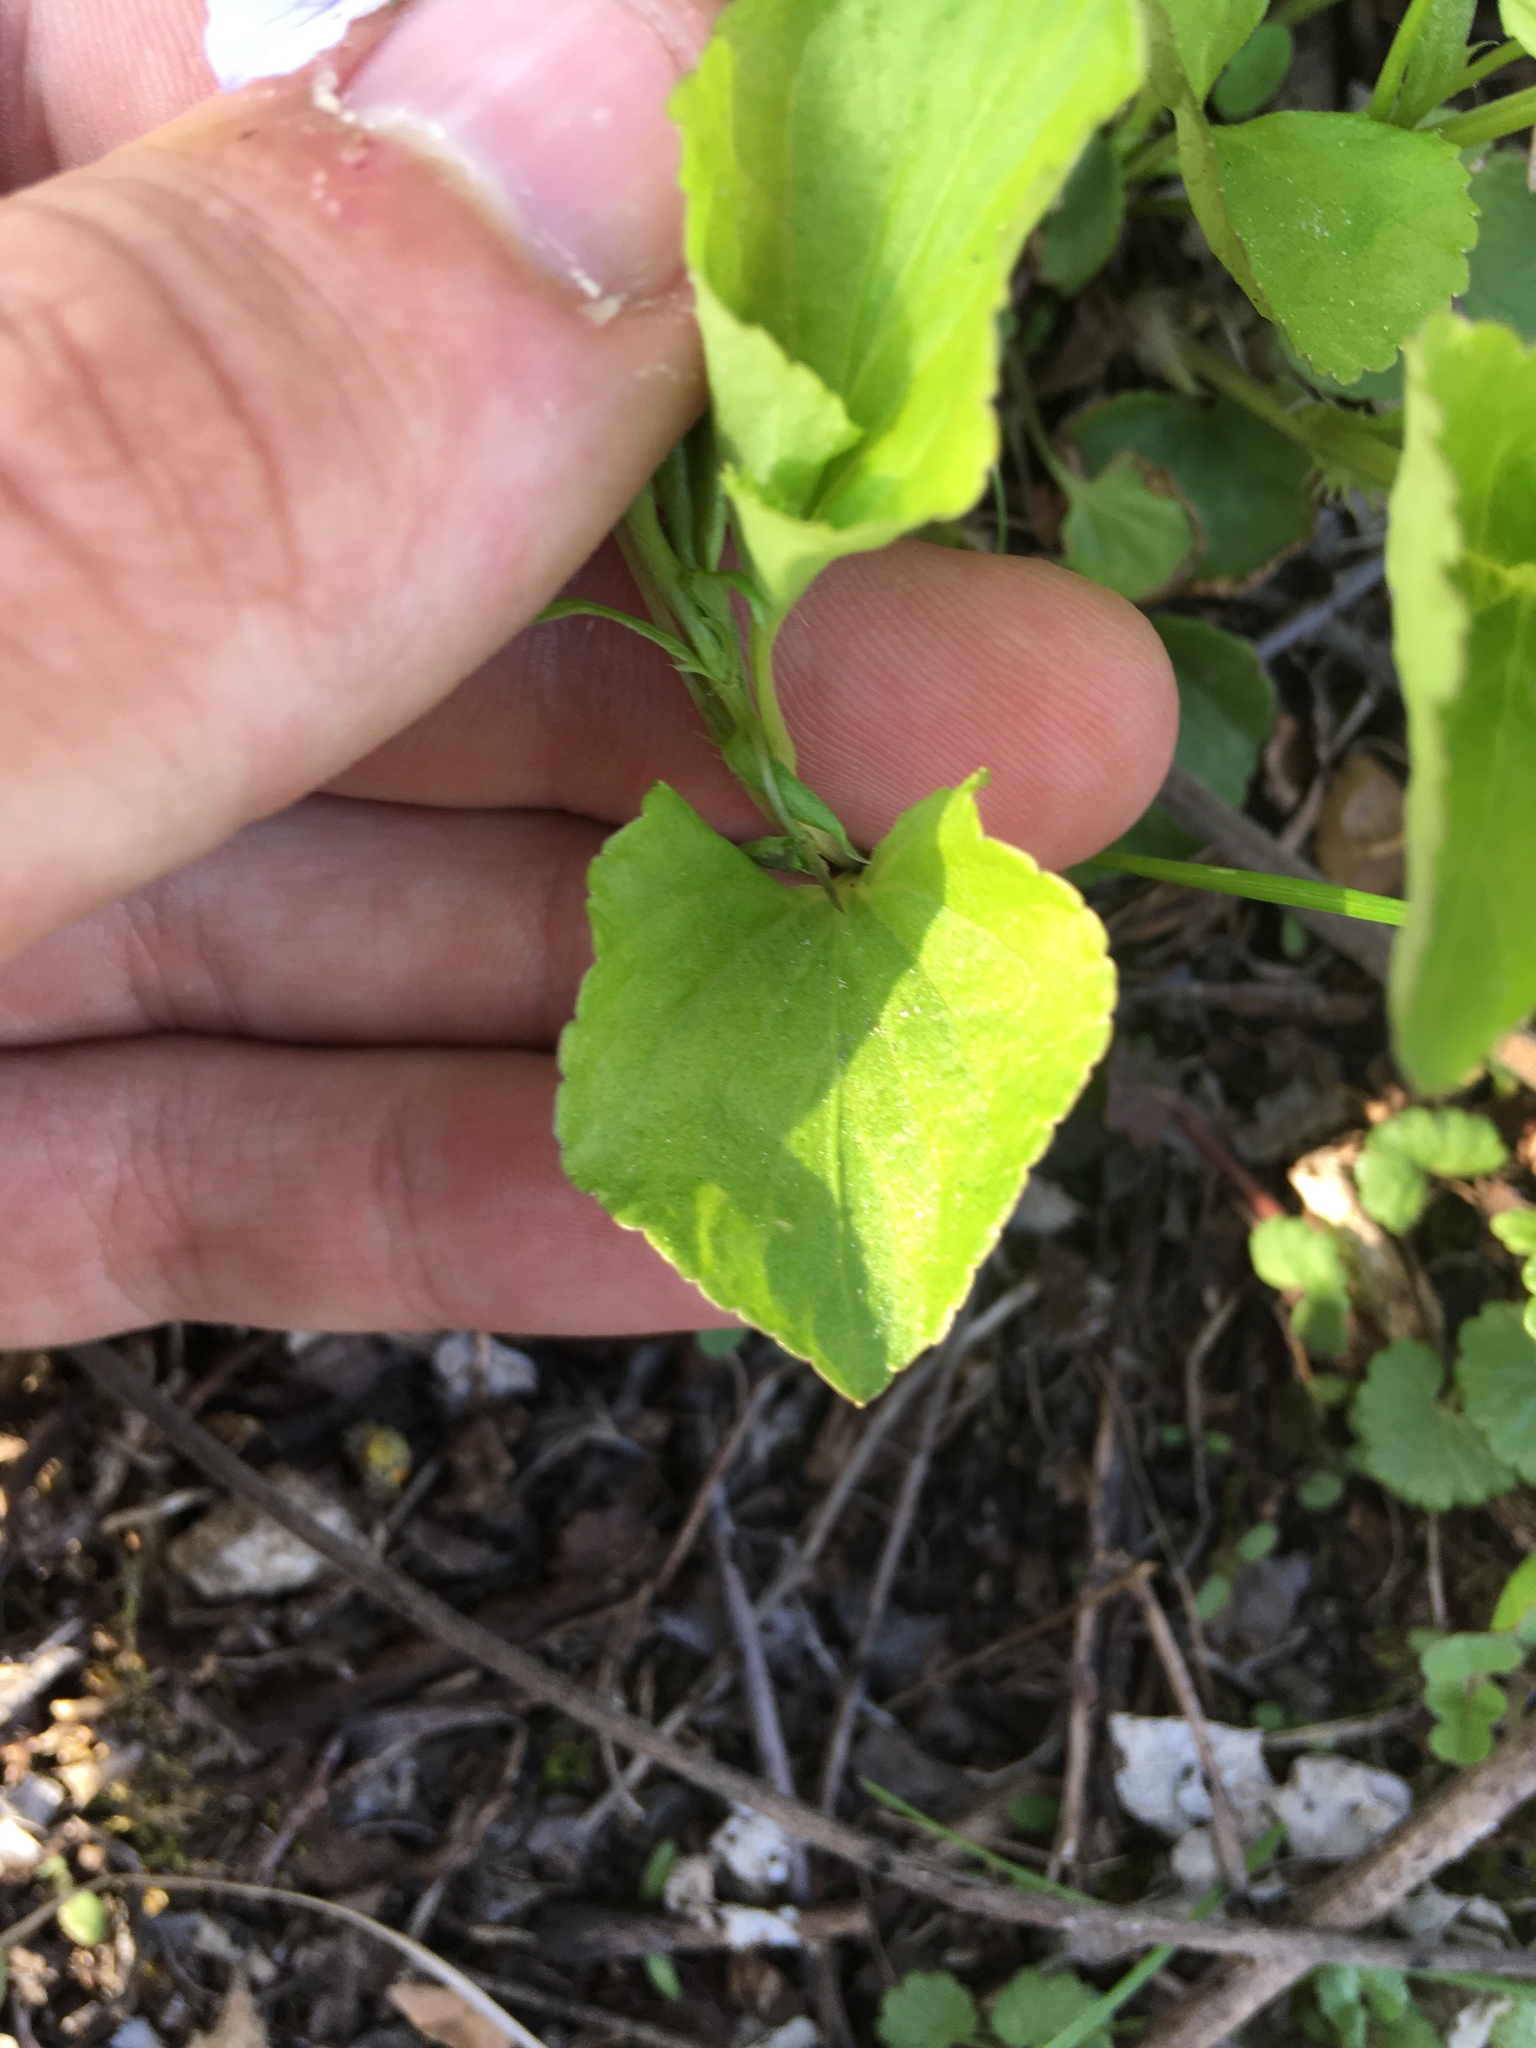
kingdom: Plantae
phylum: Tracheophyta
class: Magnoliopsida
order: Malpighiales
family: Violaceae
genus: Viola
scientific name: Viola labradorica
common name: Labrador violet
